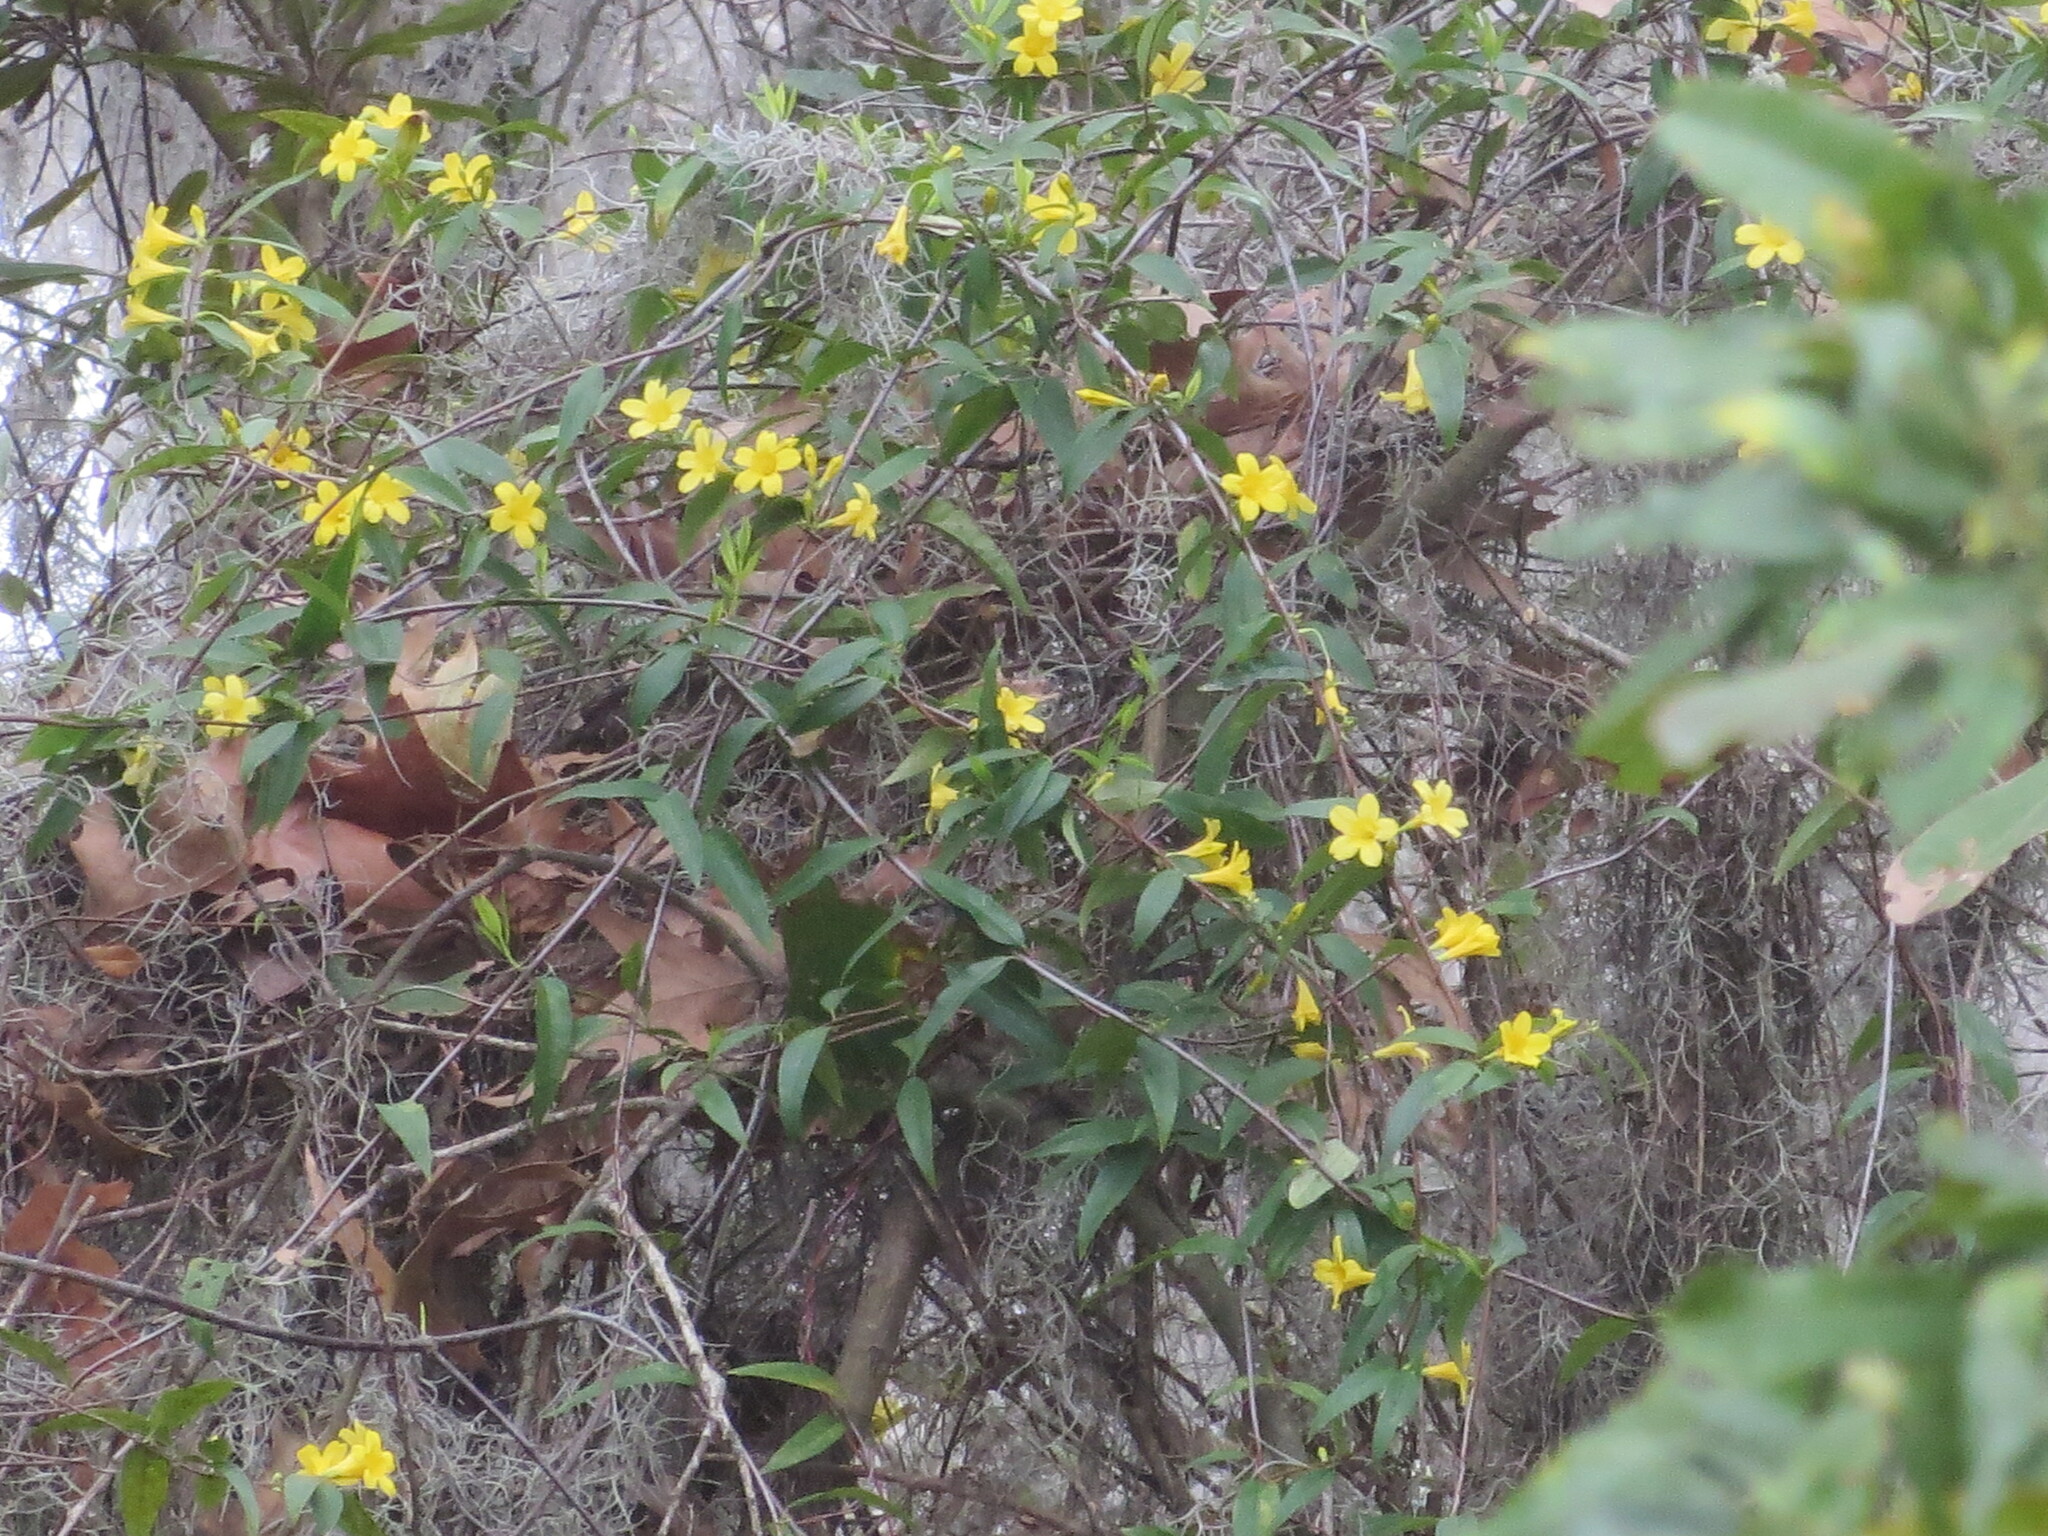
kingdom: Plantae
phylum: Tracheophyta
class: Magnoliopsida
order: Gentianales
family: Gelsemiaceae
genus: Gelsemium
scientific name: Gelsemium sempervirens
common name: Carolina-jasmine
